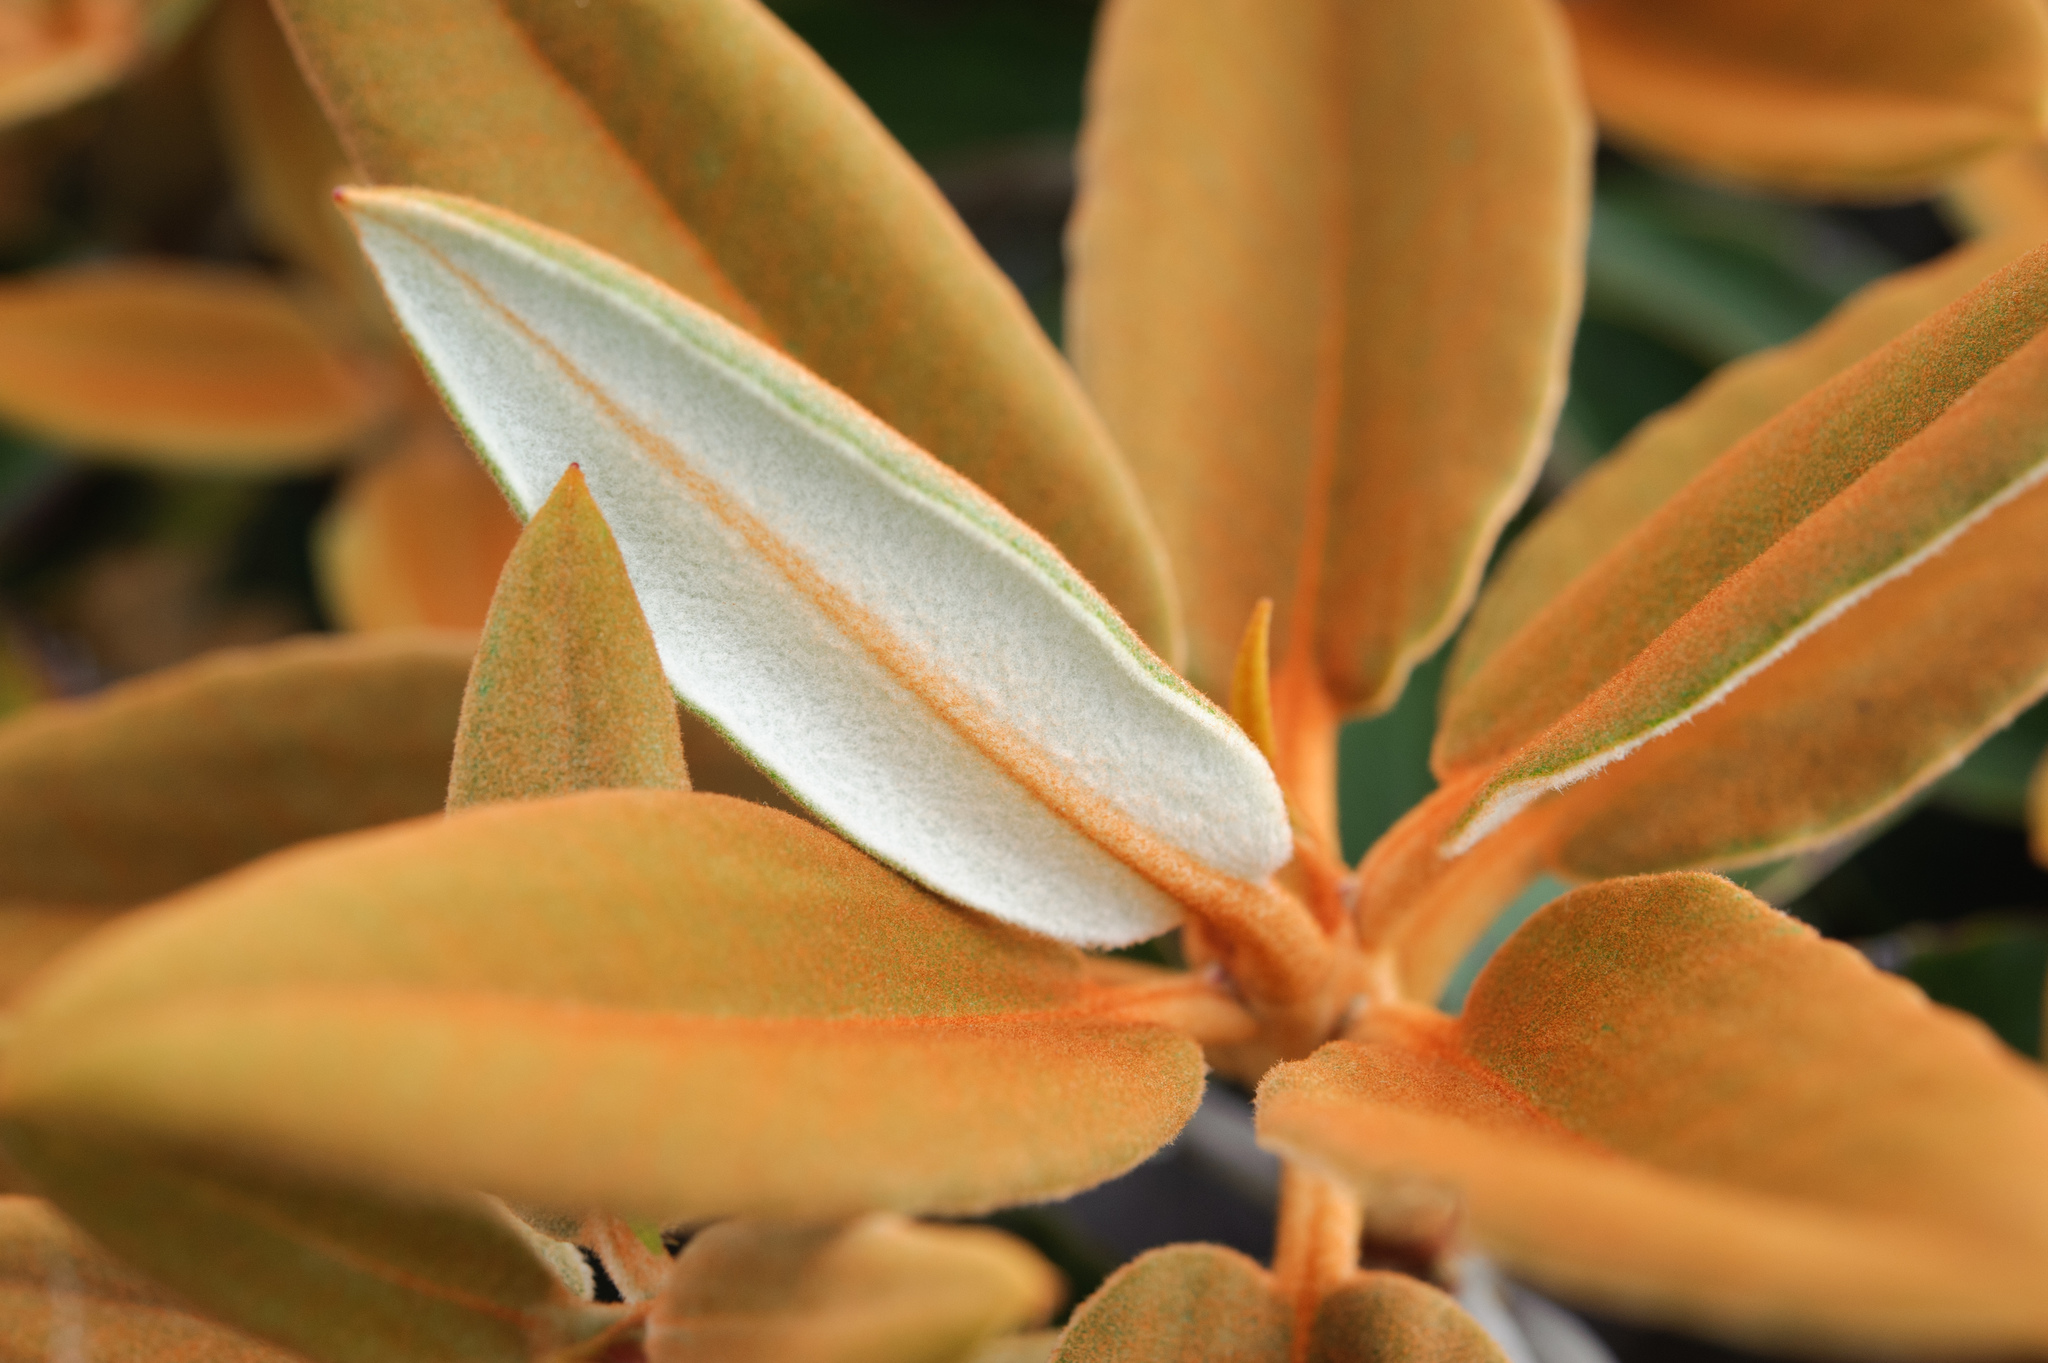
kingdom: Plantae
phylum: Tracheophyta
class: Magnoliopsida
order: Ericales
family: Ericaceae
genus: Rhododendron
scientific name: Rhododendron hyperythrum
